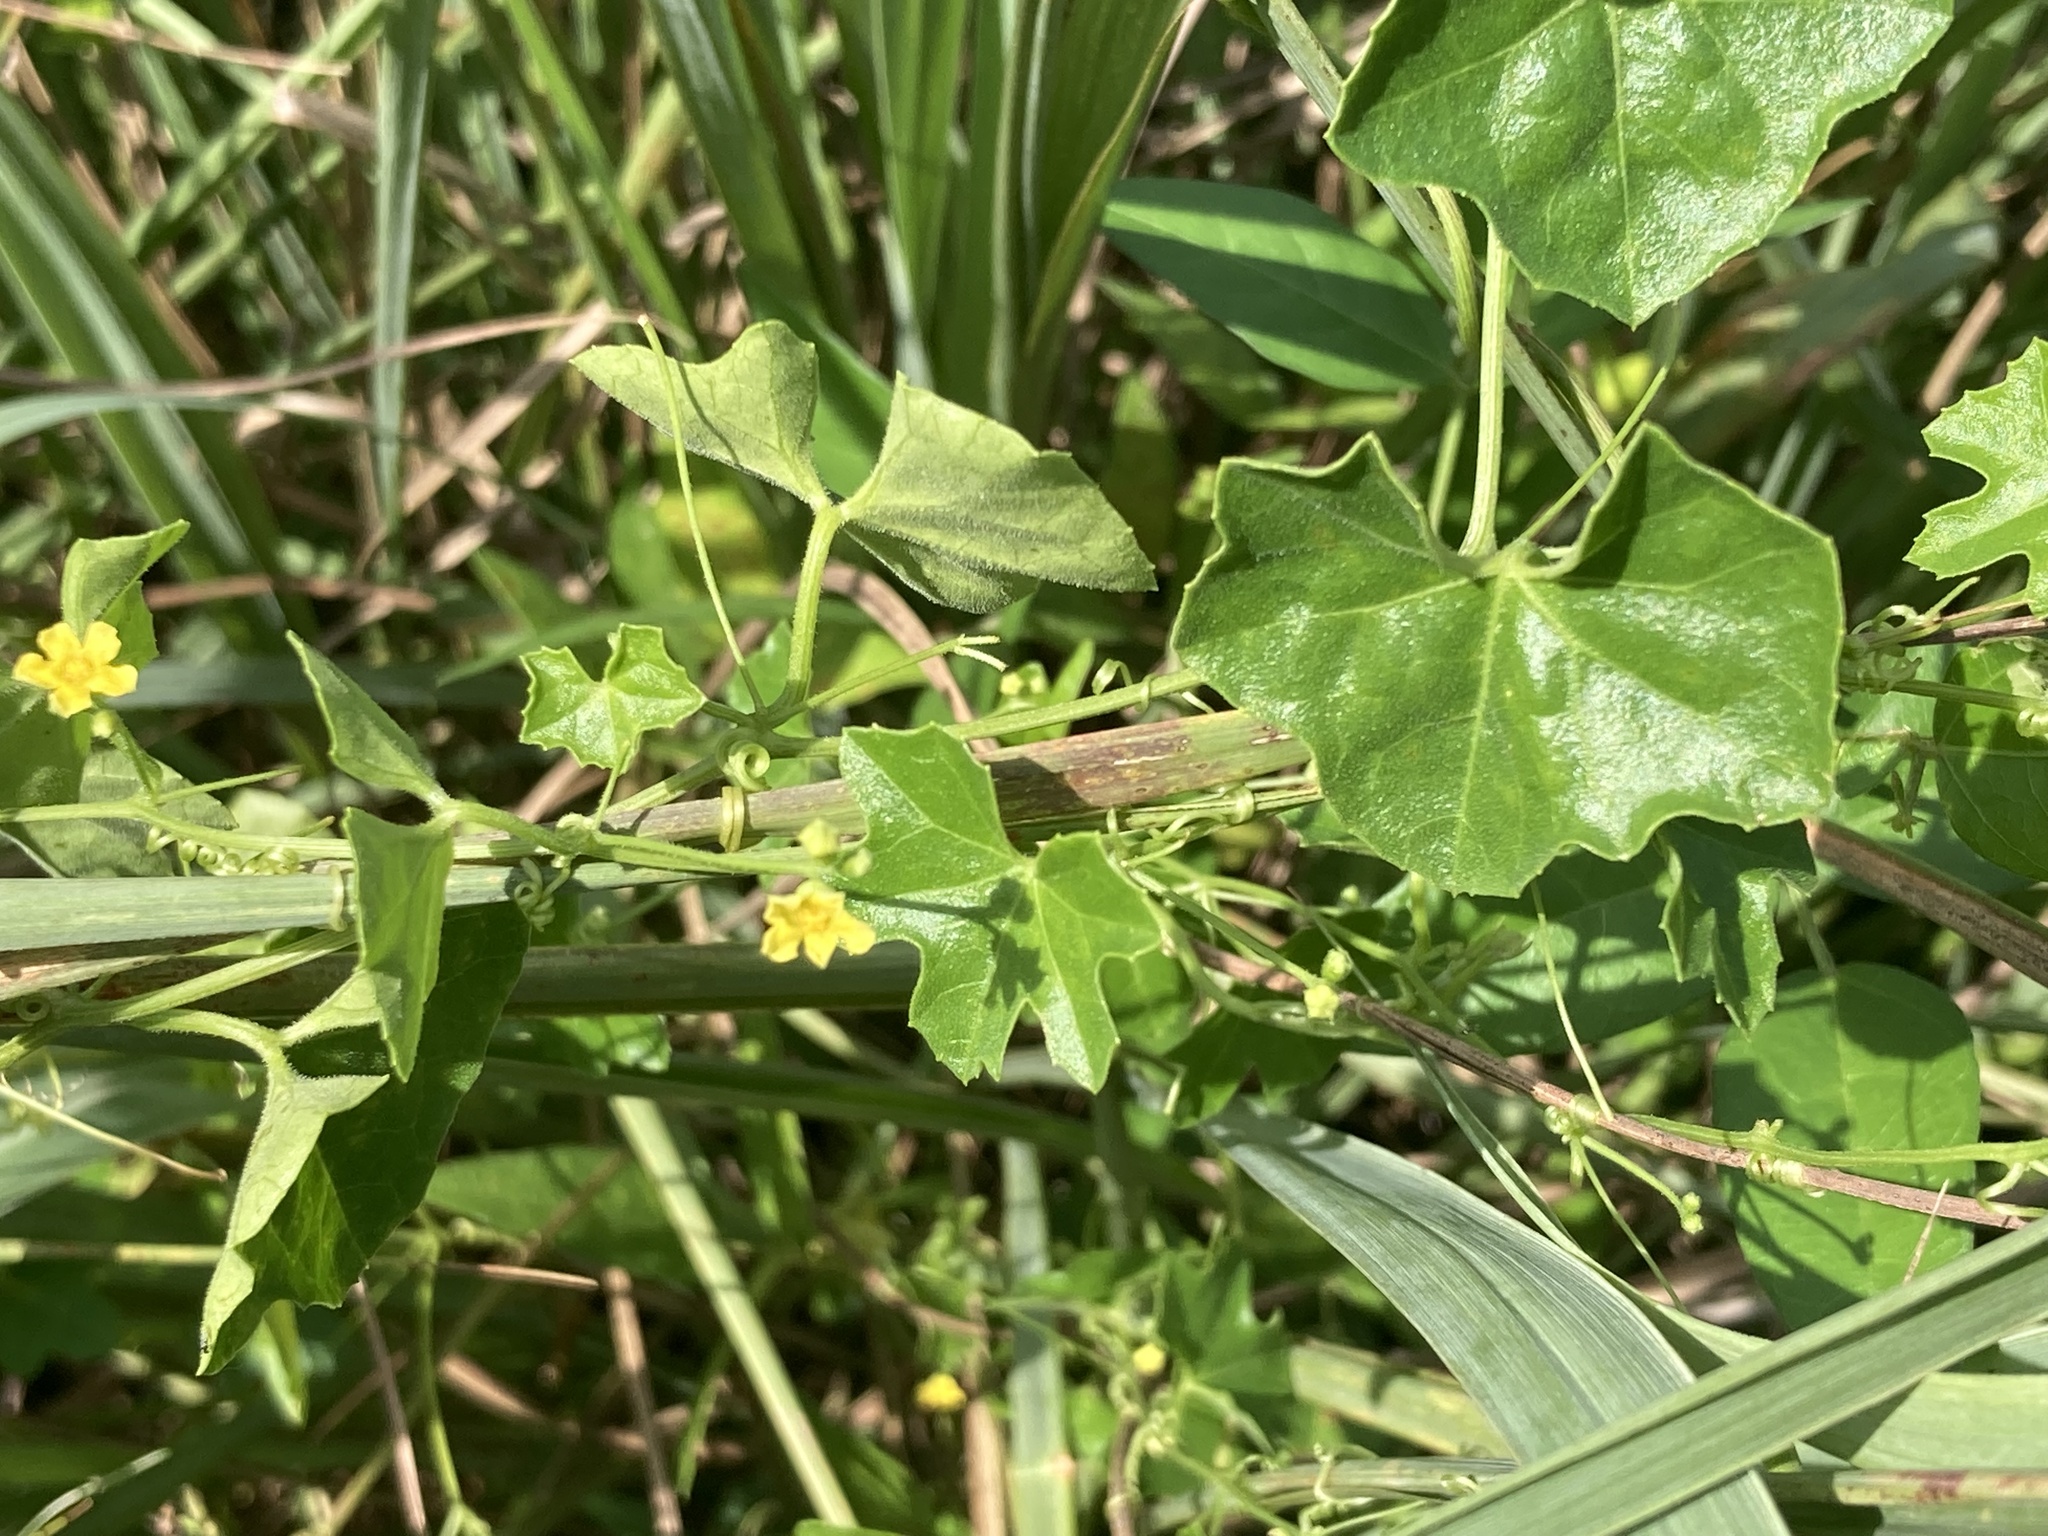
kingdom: Plantae
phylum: Tracheophyta
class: Magnoliopsida
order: Cucurbitales
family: Cucurbitaceae
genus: Melothria
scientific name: Melothria pendula
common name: Creeping-cucumber
